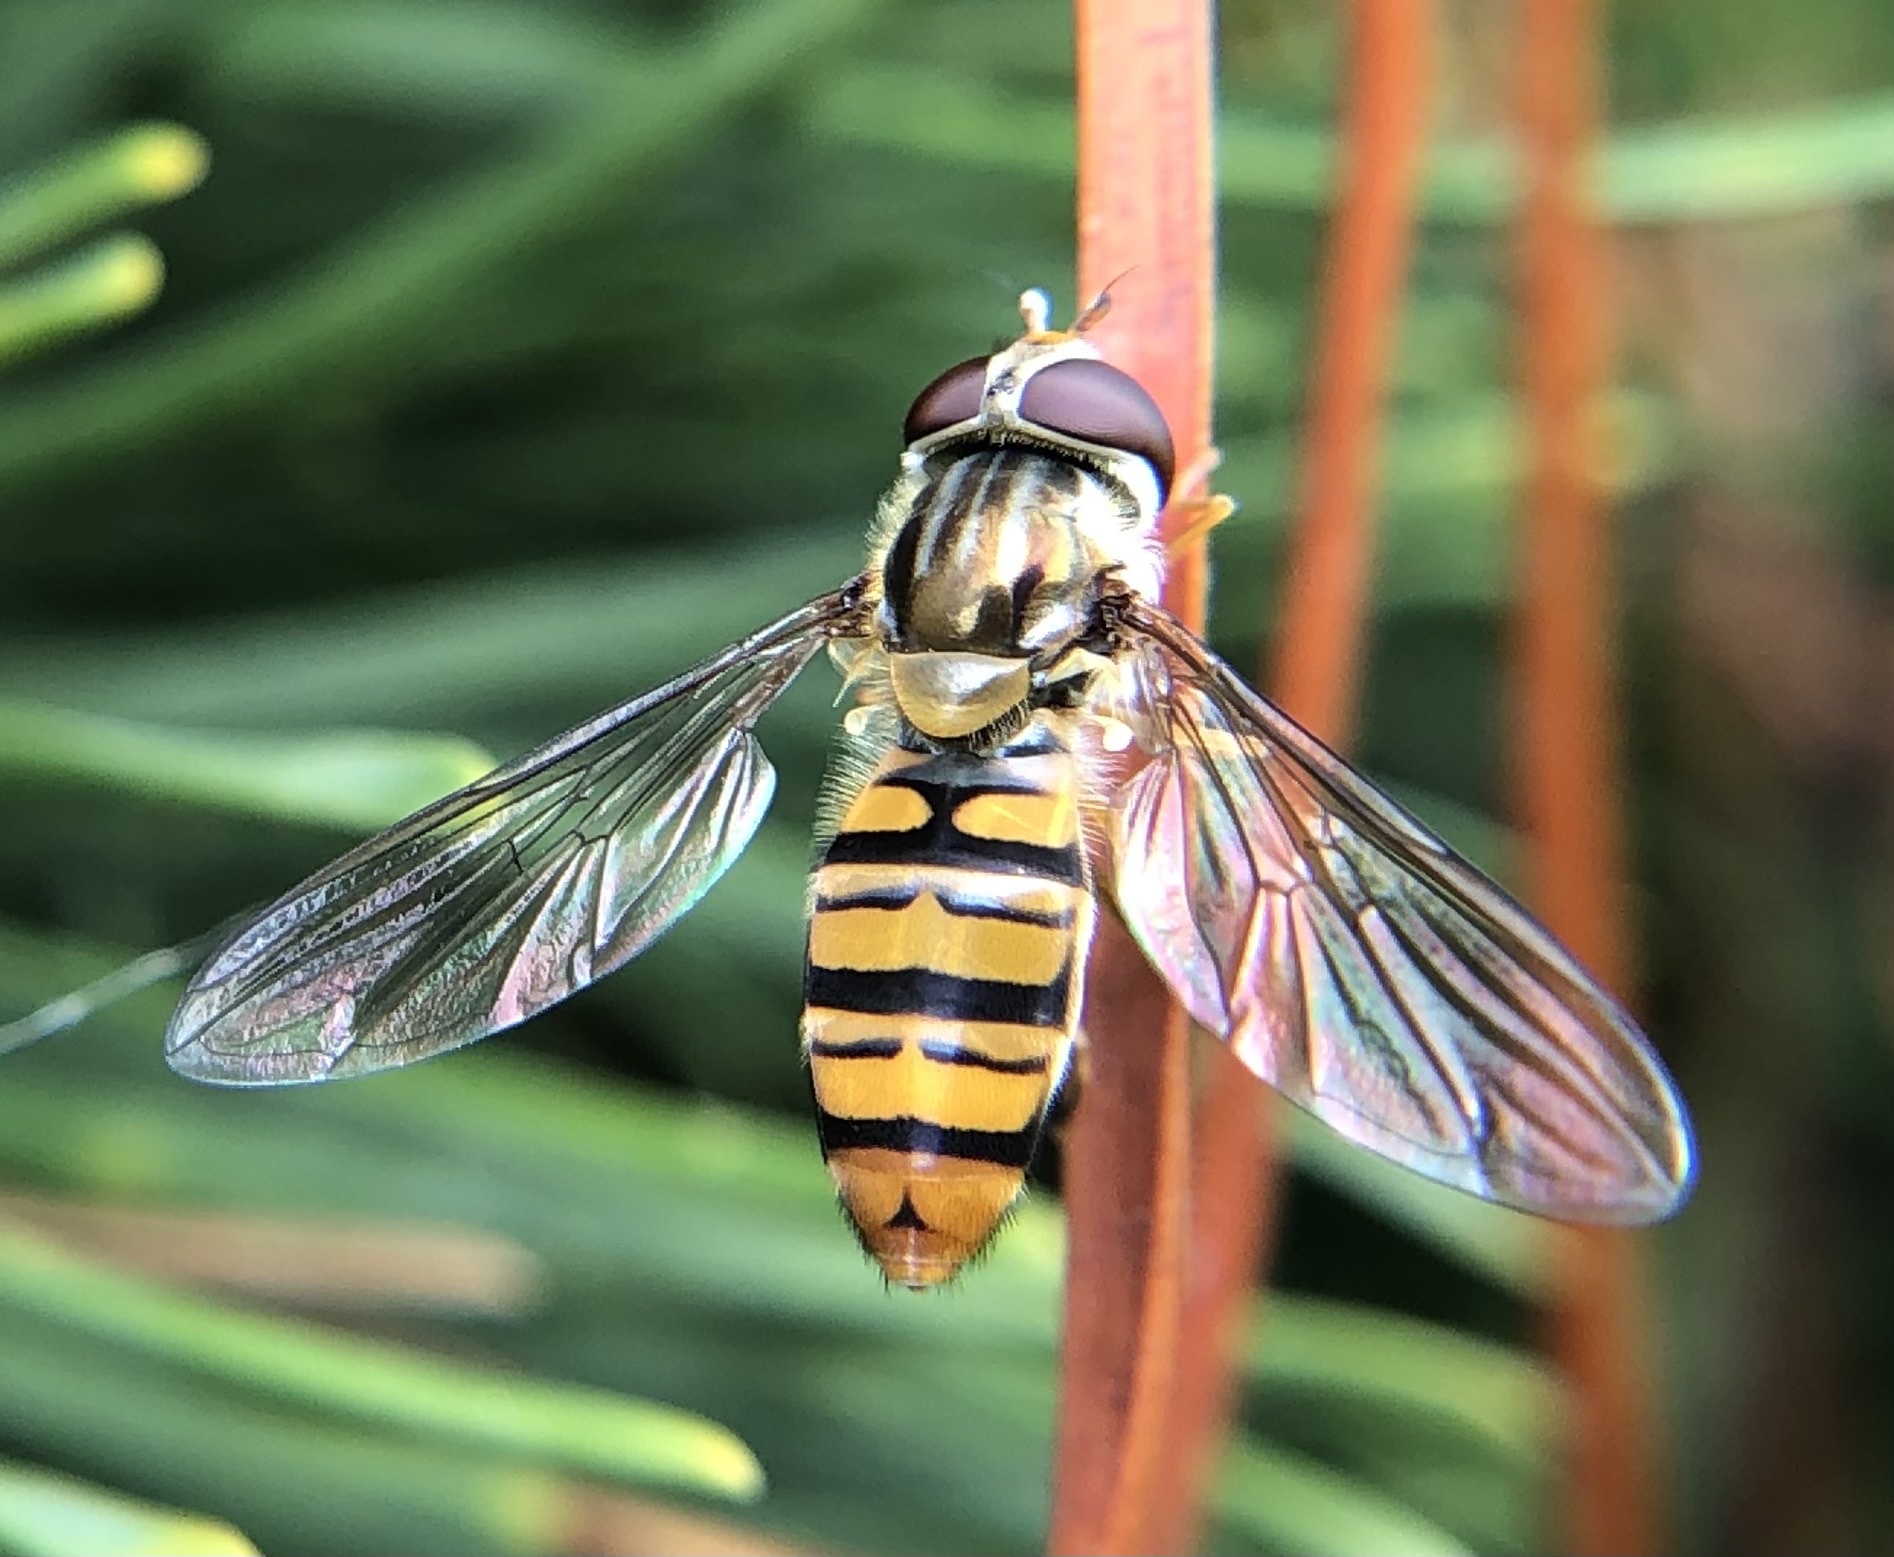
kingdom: Animalia
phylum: Arthropoda
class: Insecta
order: Diptera
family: Syrphidae
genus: Episyrphus
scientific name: Episyrphus balteatus
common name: Marmalade hoverfly
